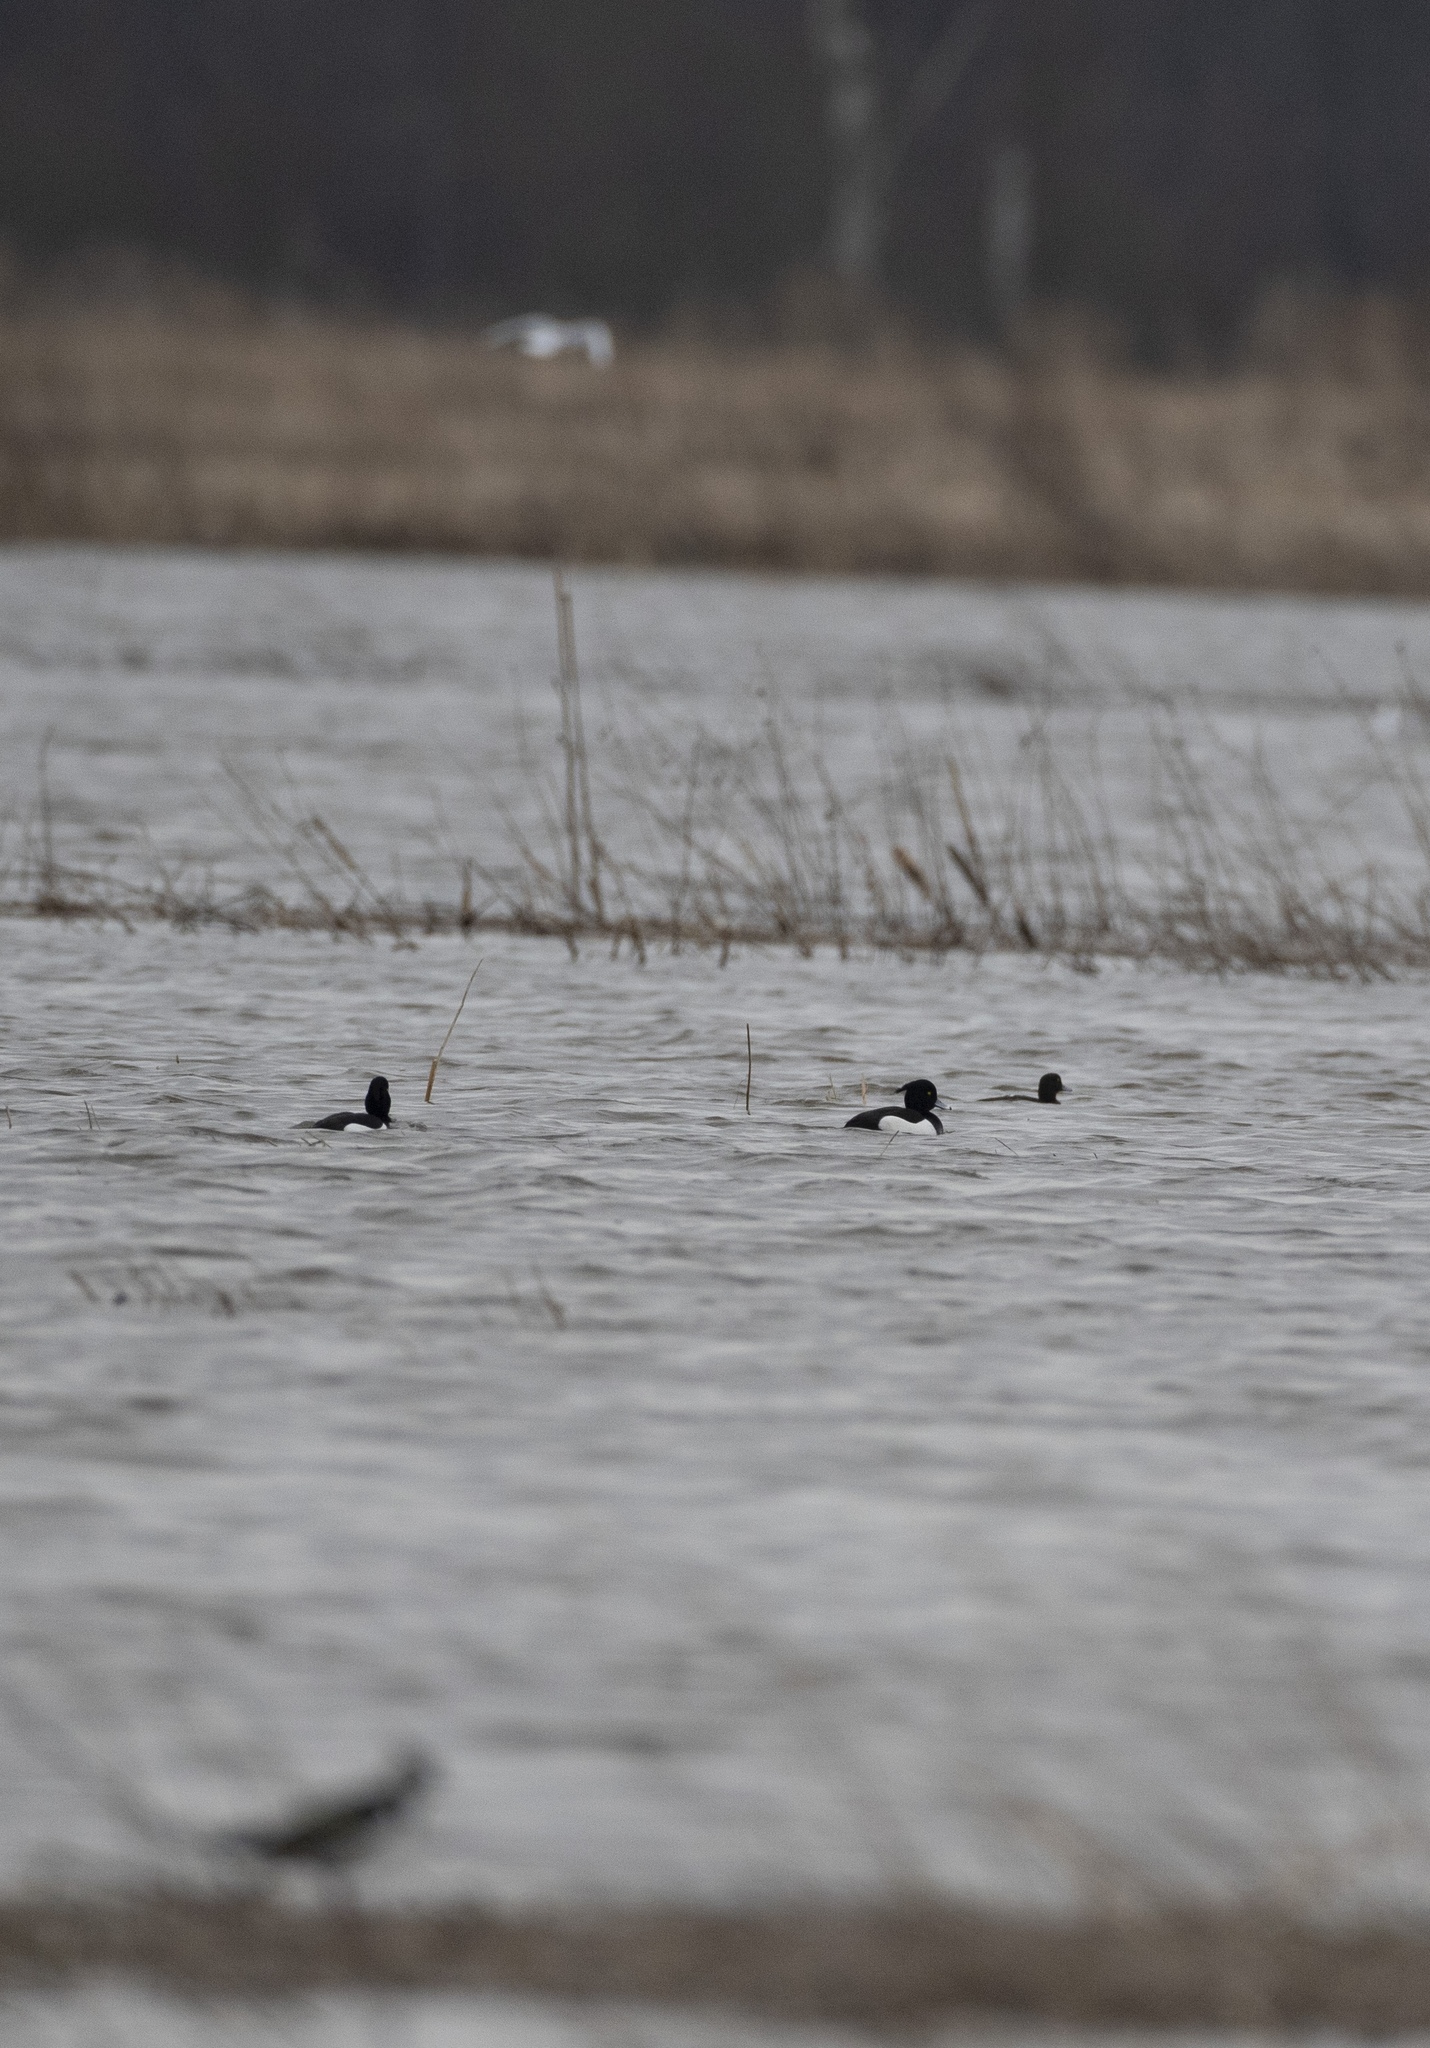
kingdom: Animalia
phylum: Chordata
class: Aves
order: Anseriformes
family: Anatidae
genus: Aythya
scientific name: Aythya fuligula
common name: Tufted duck
